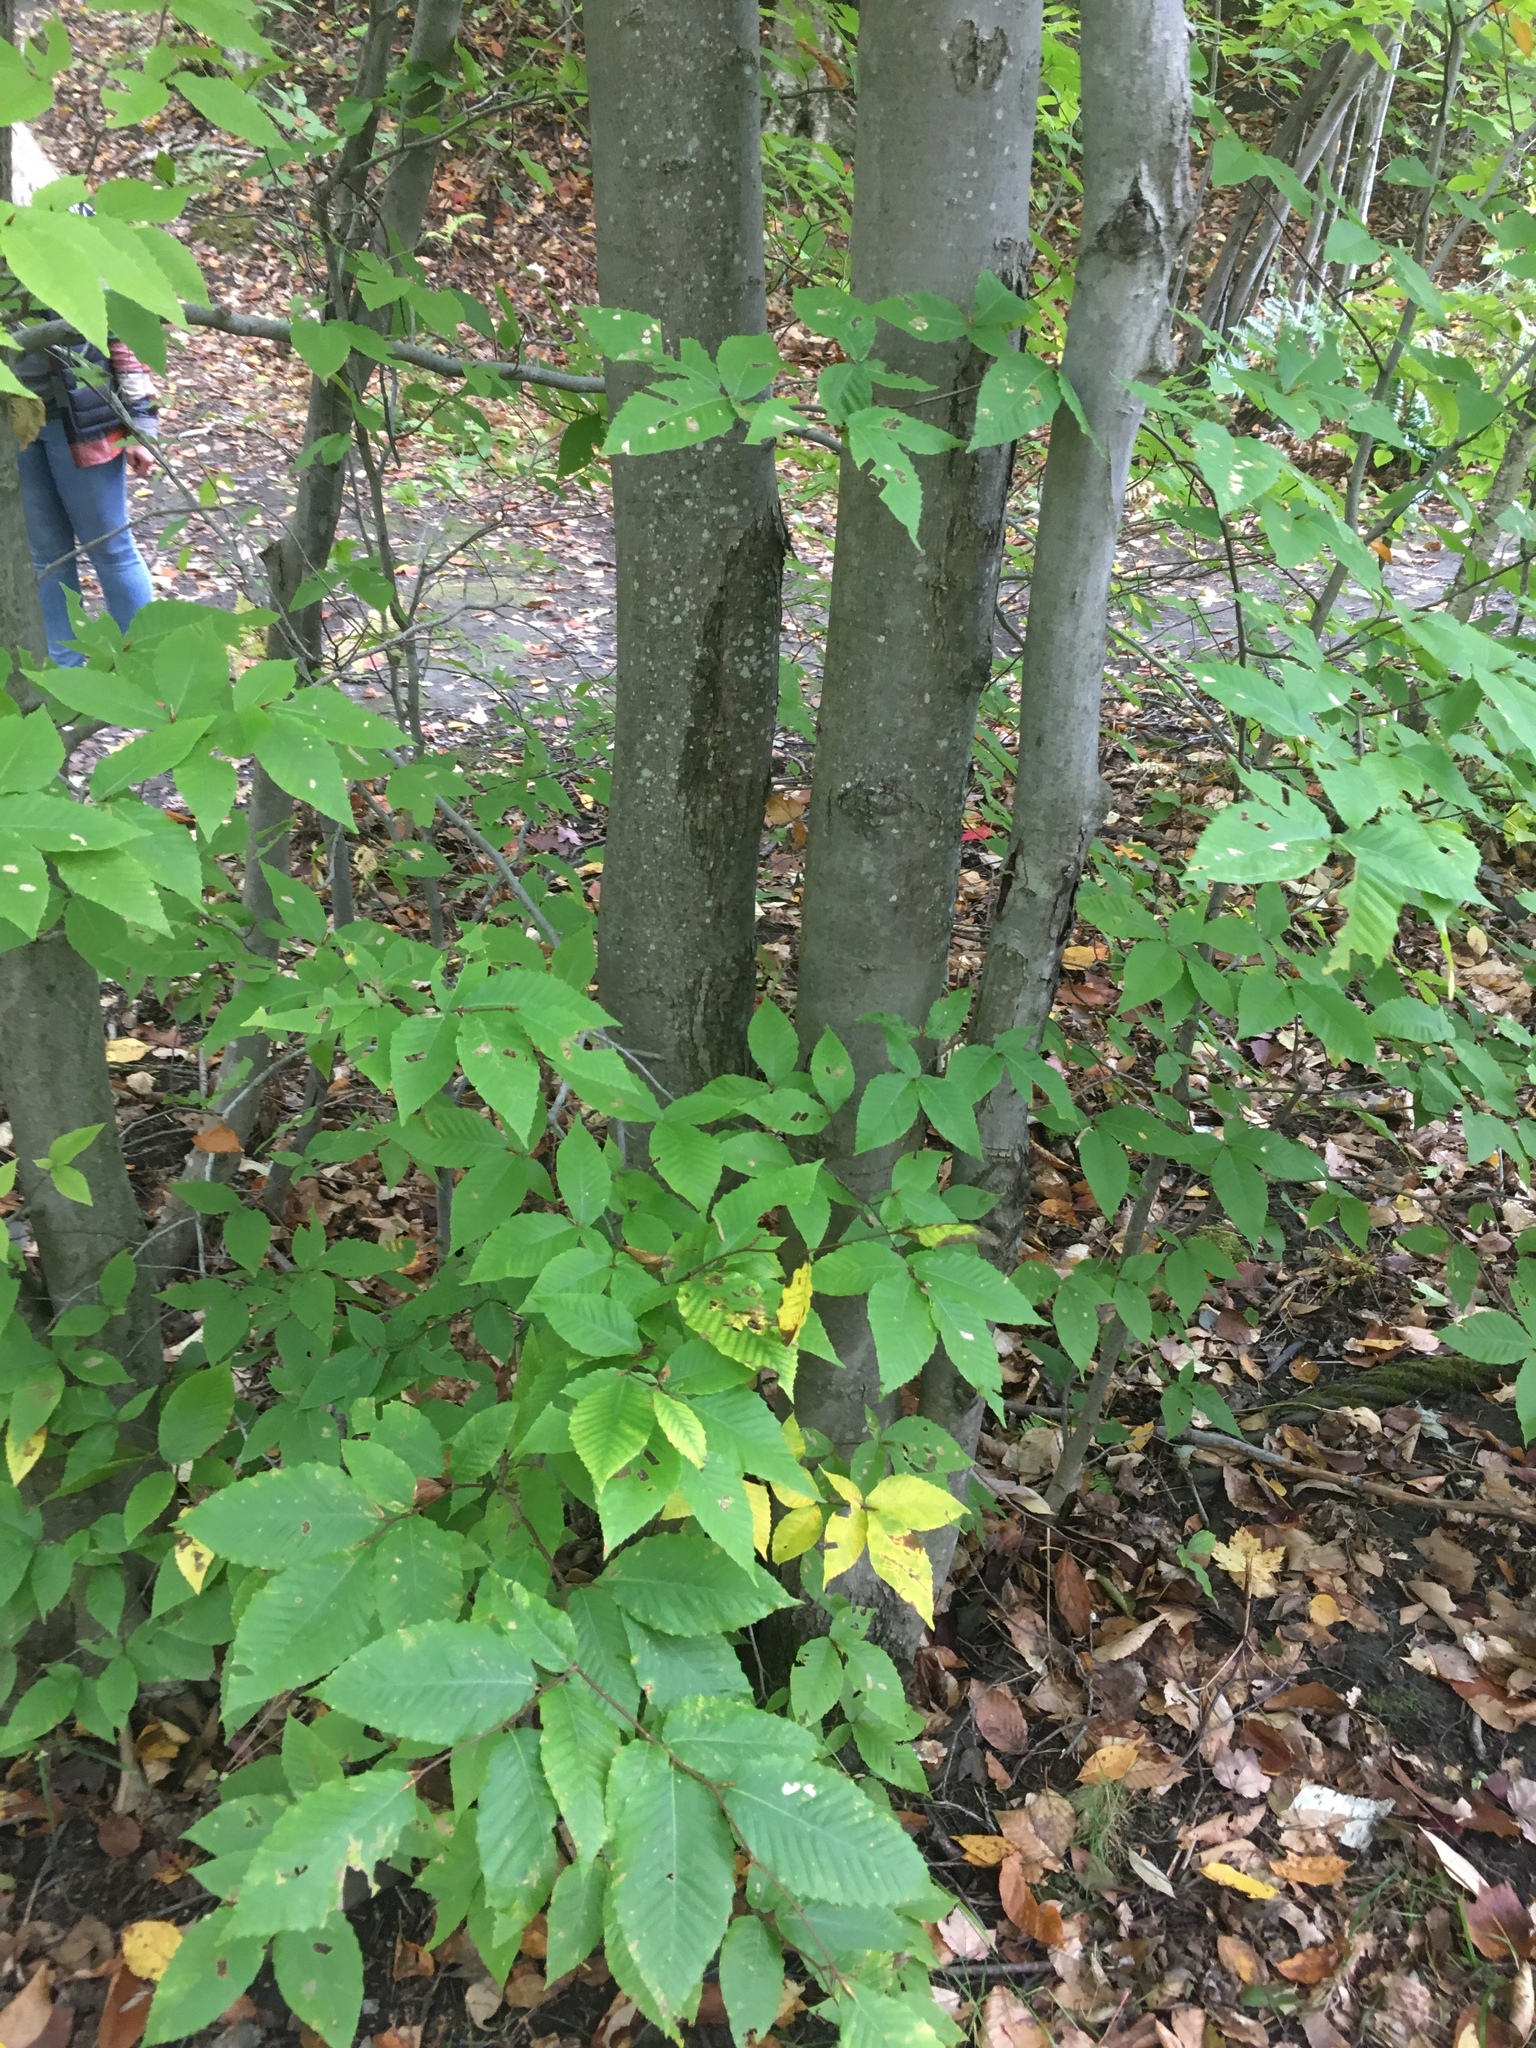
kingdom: Plantae
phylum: Tracheophyta
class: Magnoliopsida
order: Fagales
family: Fagaceae
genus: Fagus
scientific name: Fagus grandifolia
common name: American beech
